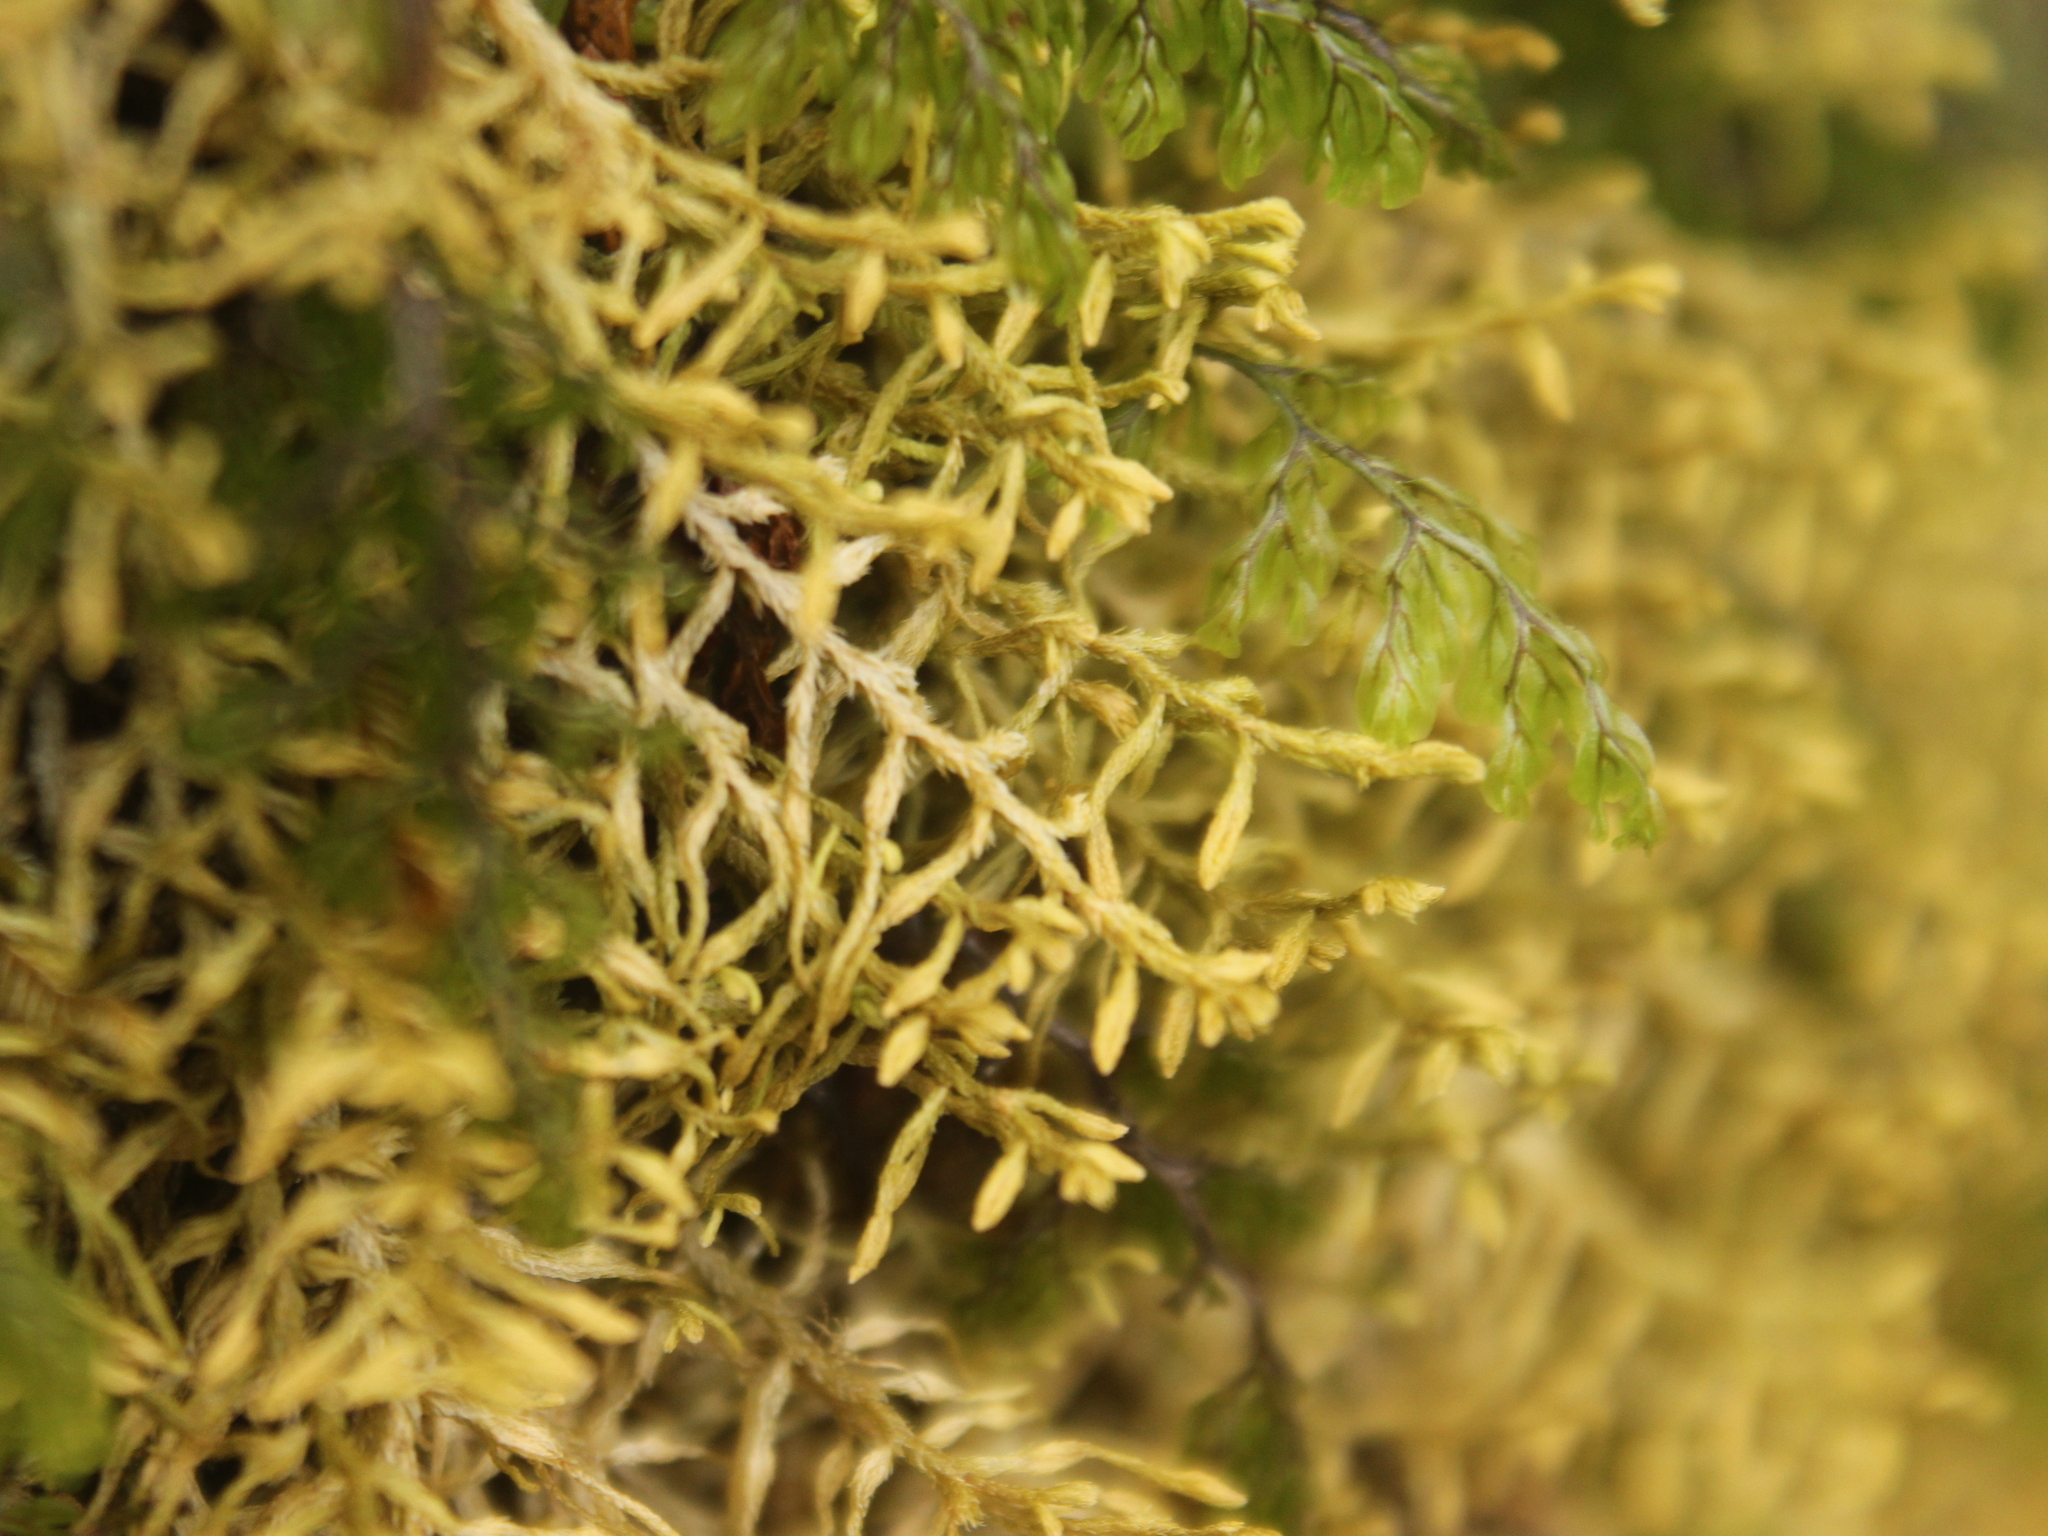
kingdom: Plantae
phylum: Bryophyta
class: Bryopsida
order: Hypnales
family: Meteoriaceae
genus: Papillaria
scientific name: Papillaria crocea
